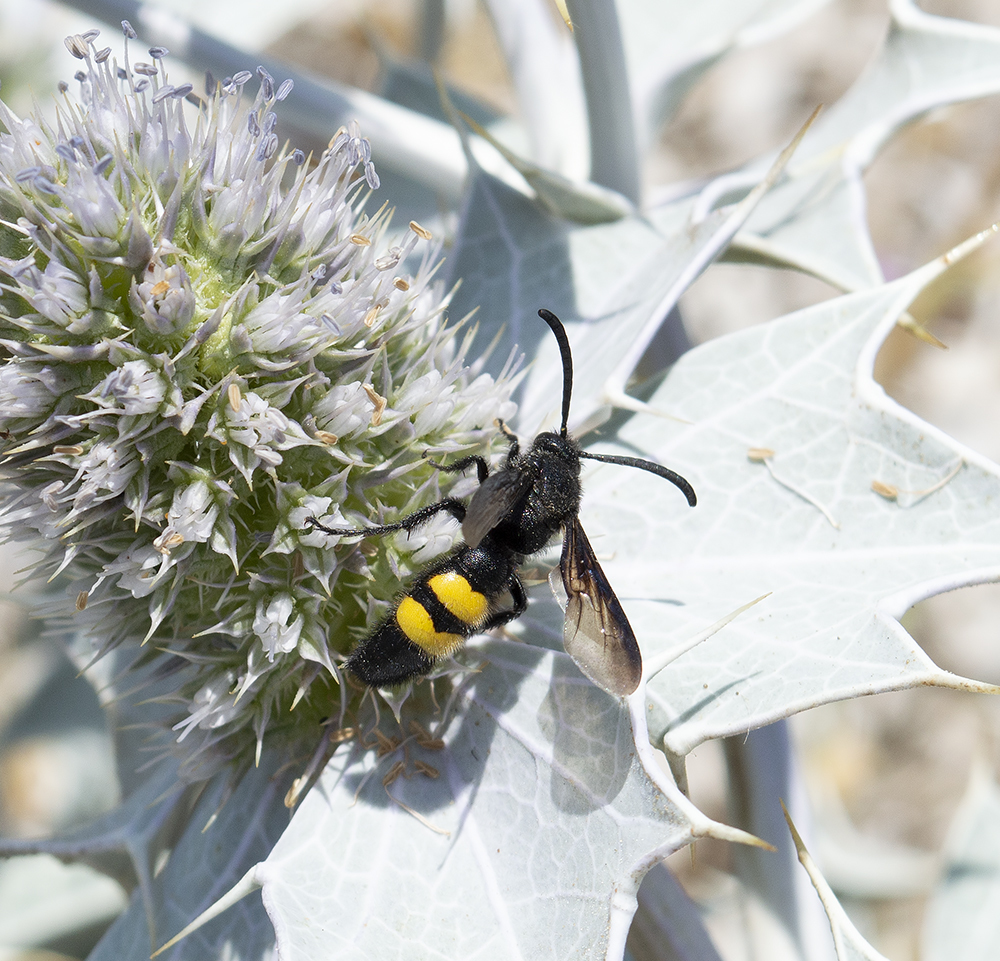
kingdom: Animalia
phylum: Arthropoda
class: Insecta
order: Hymenoptera
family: Scoliidae
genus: Scolia
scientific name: Scolia hirta
